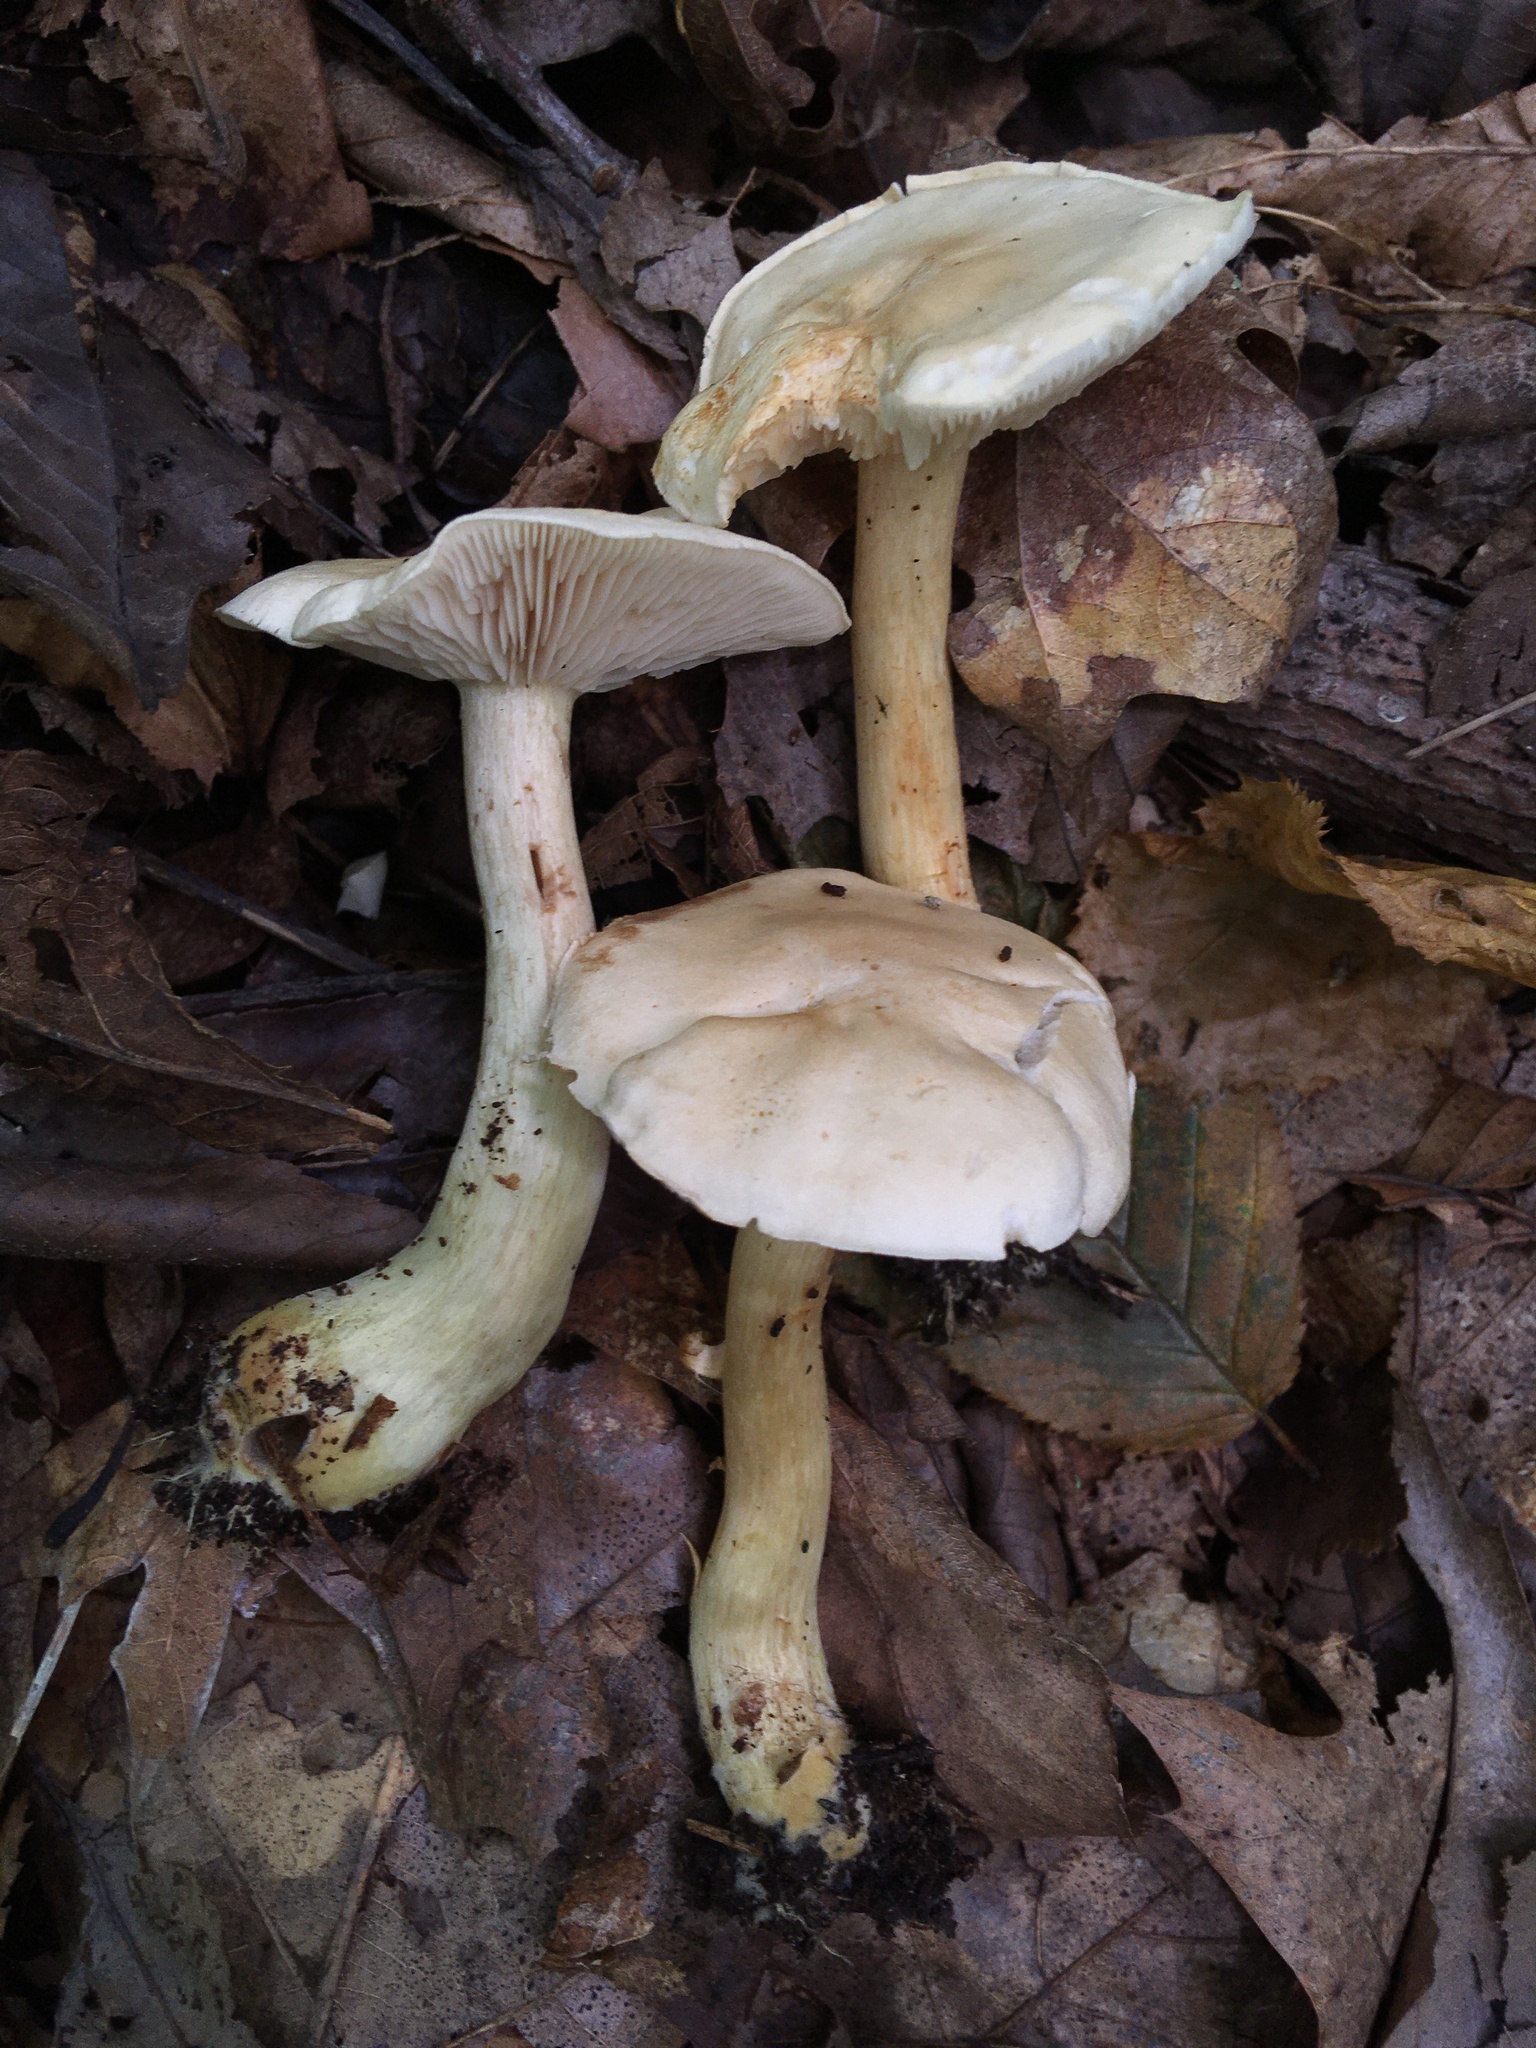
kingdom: Fungi
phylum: Basidiomycota
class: Agaricomycetes
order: Agaricales
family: Tricholomataceae
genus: Tricholoma
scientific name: Tricholoma odorum
